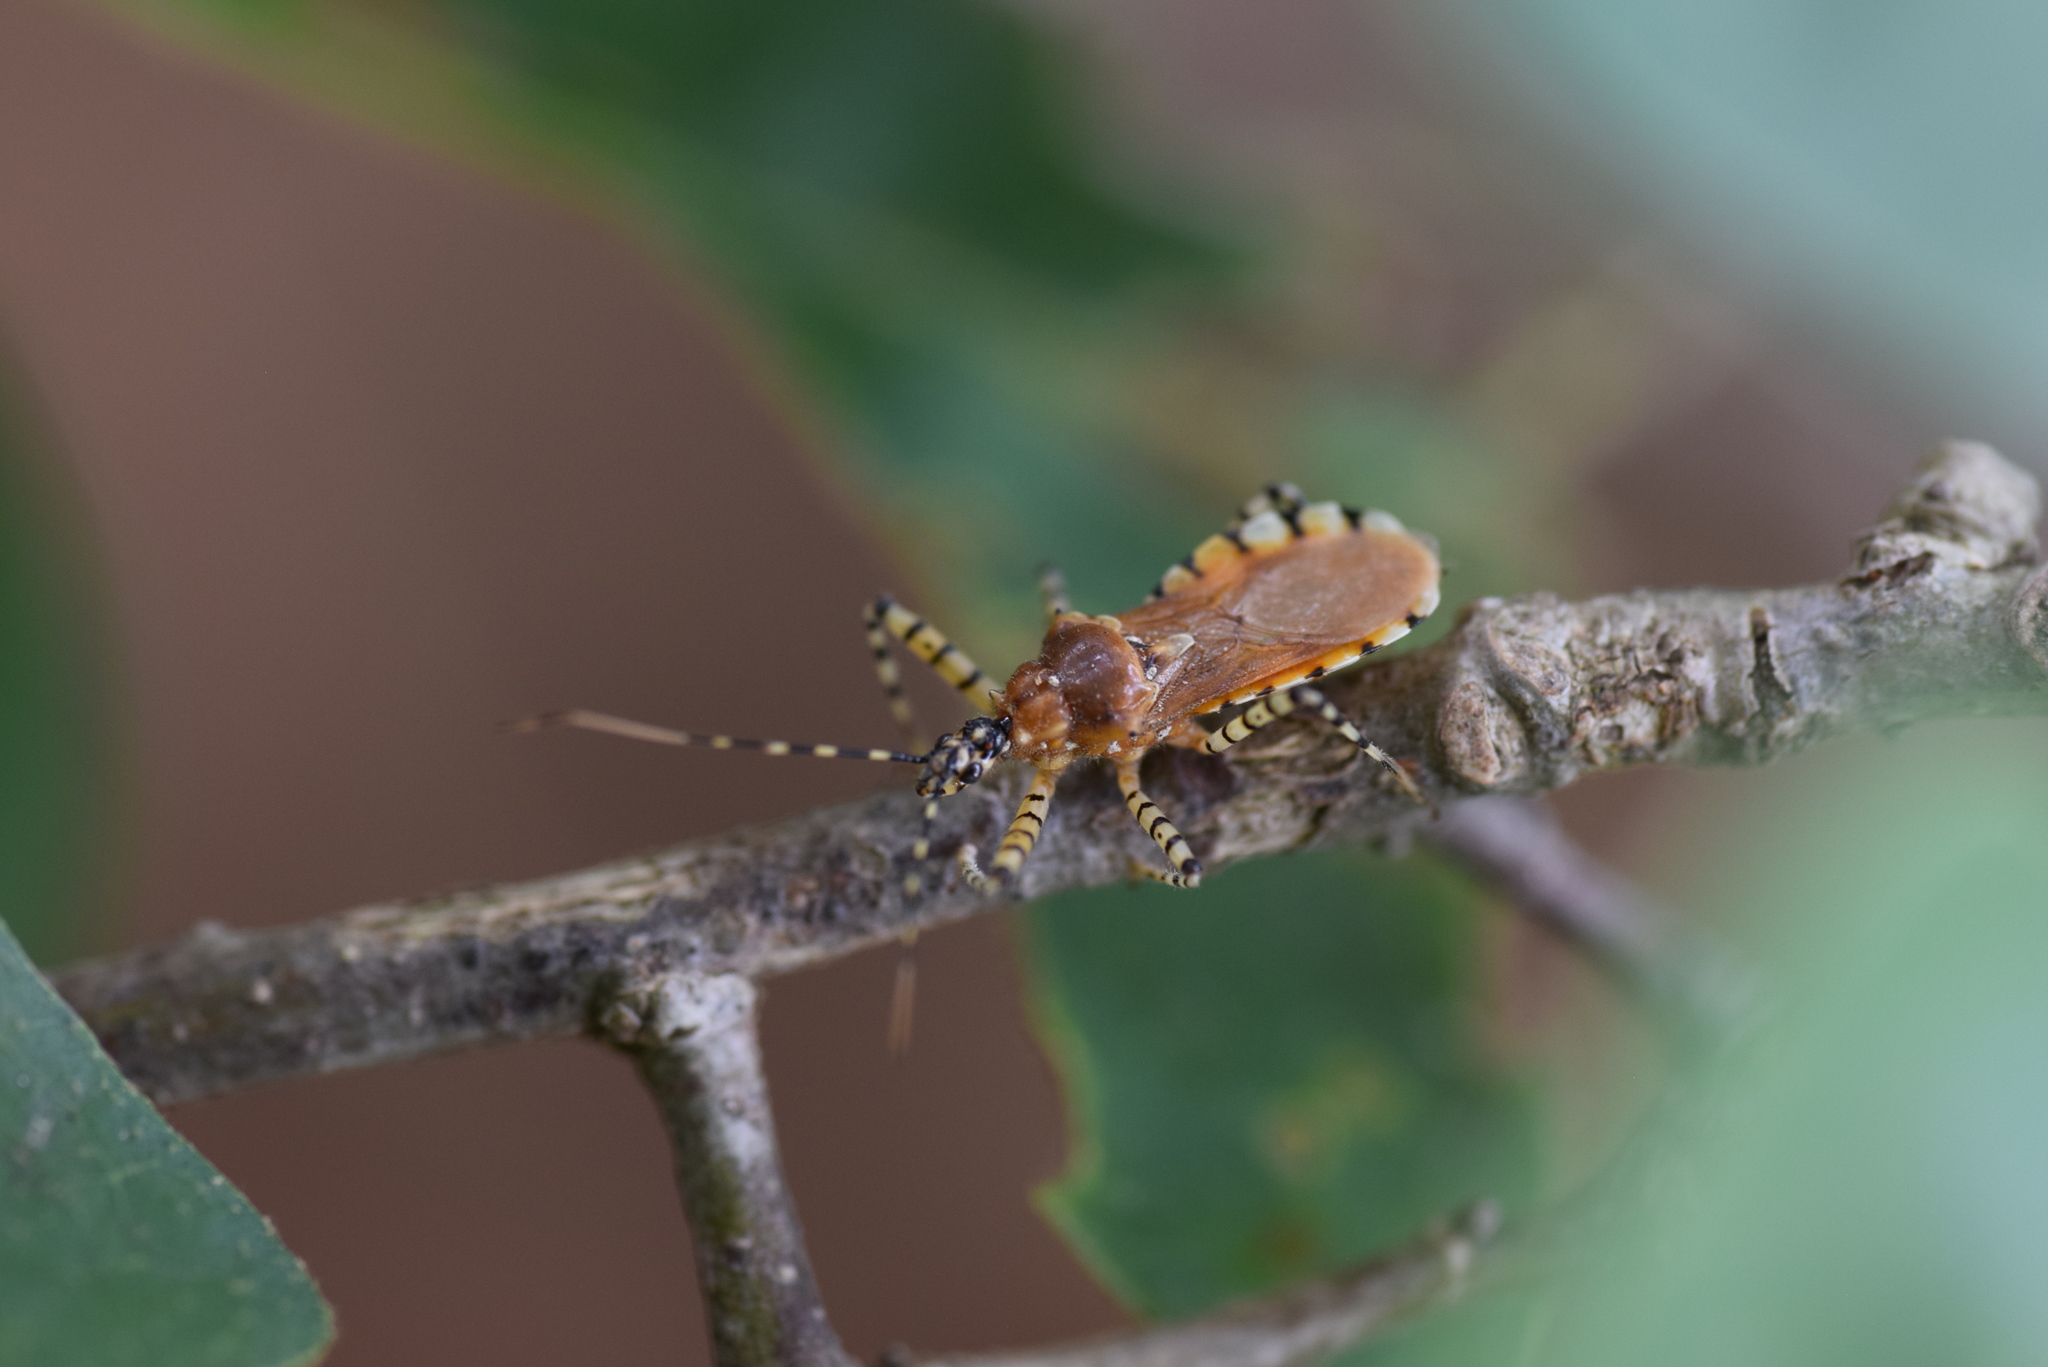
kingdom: Animalia
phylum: Arthropoda
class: Insecta
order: Hemiptera
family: Reduviidae
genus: Pselliopus
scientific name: Pselliopus cinctus
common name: Ringed assassin bug
